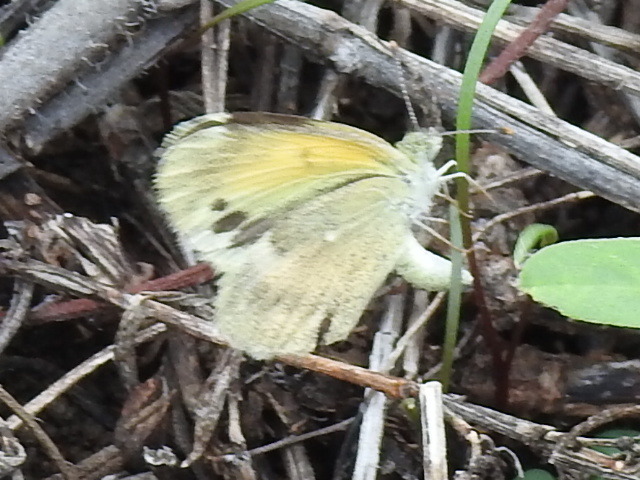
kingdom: Animalia
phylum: Arthropoda
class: Insecta
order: Lepidoptera
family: Pieridae
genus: Nathalis
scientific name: Nathalis iole
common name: Dainty sulphur
